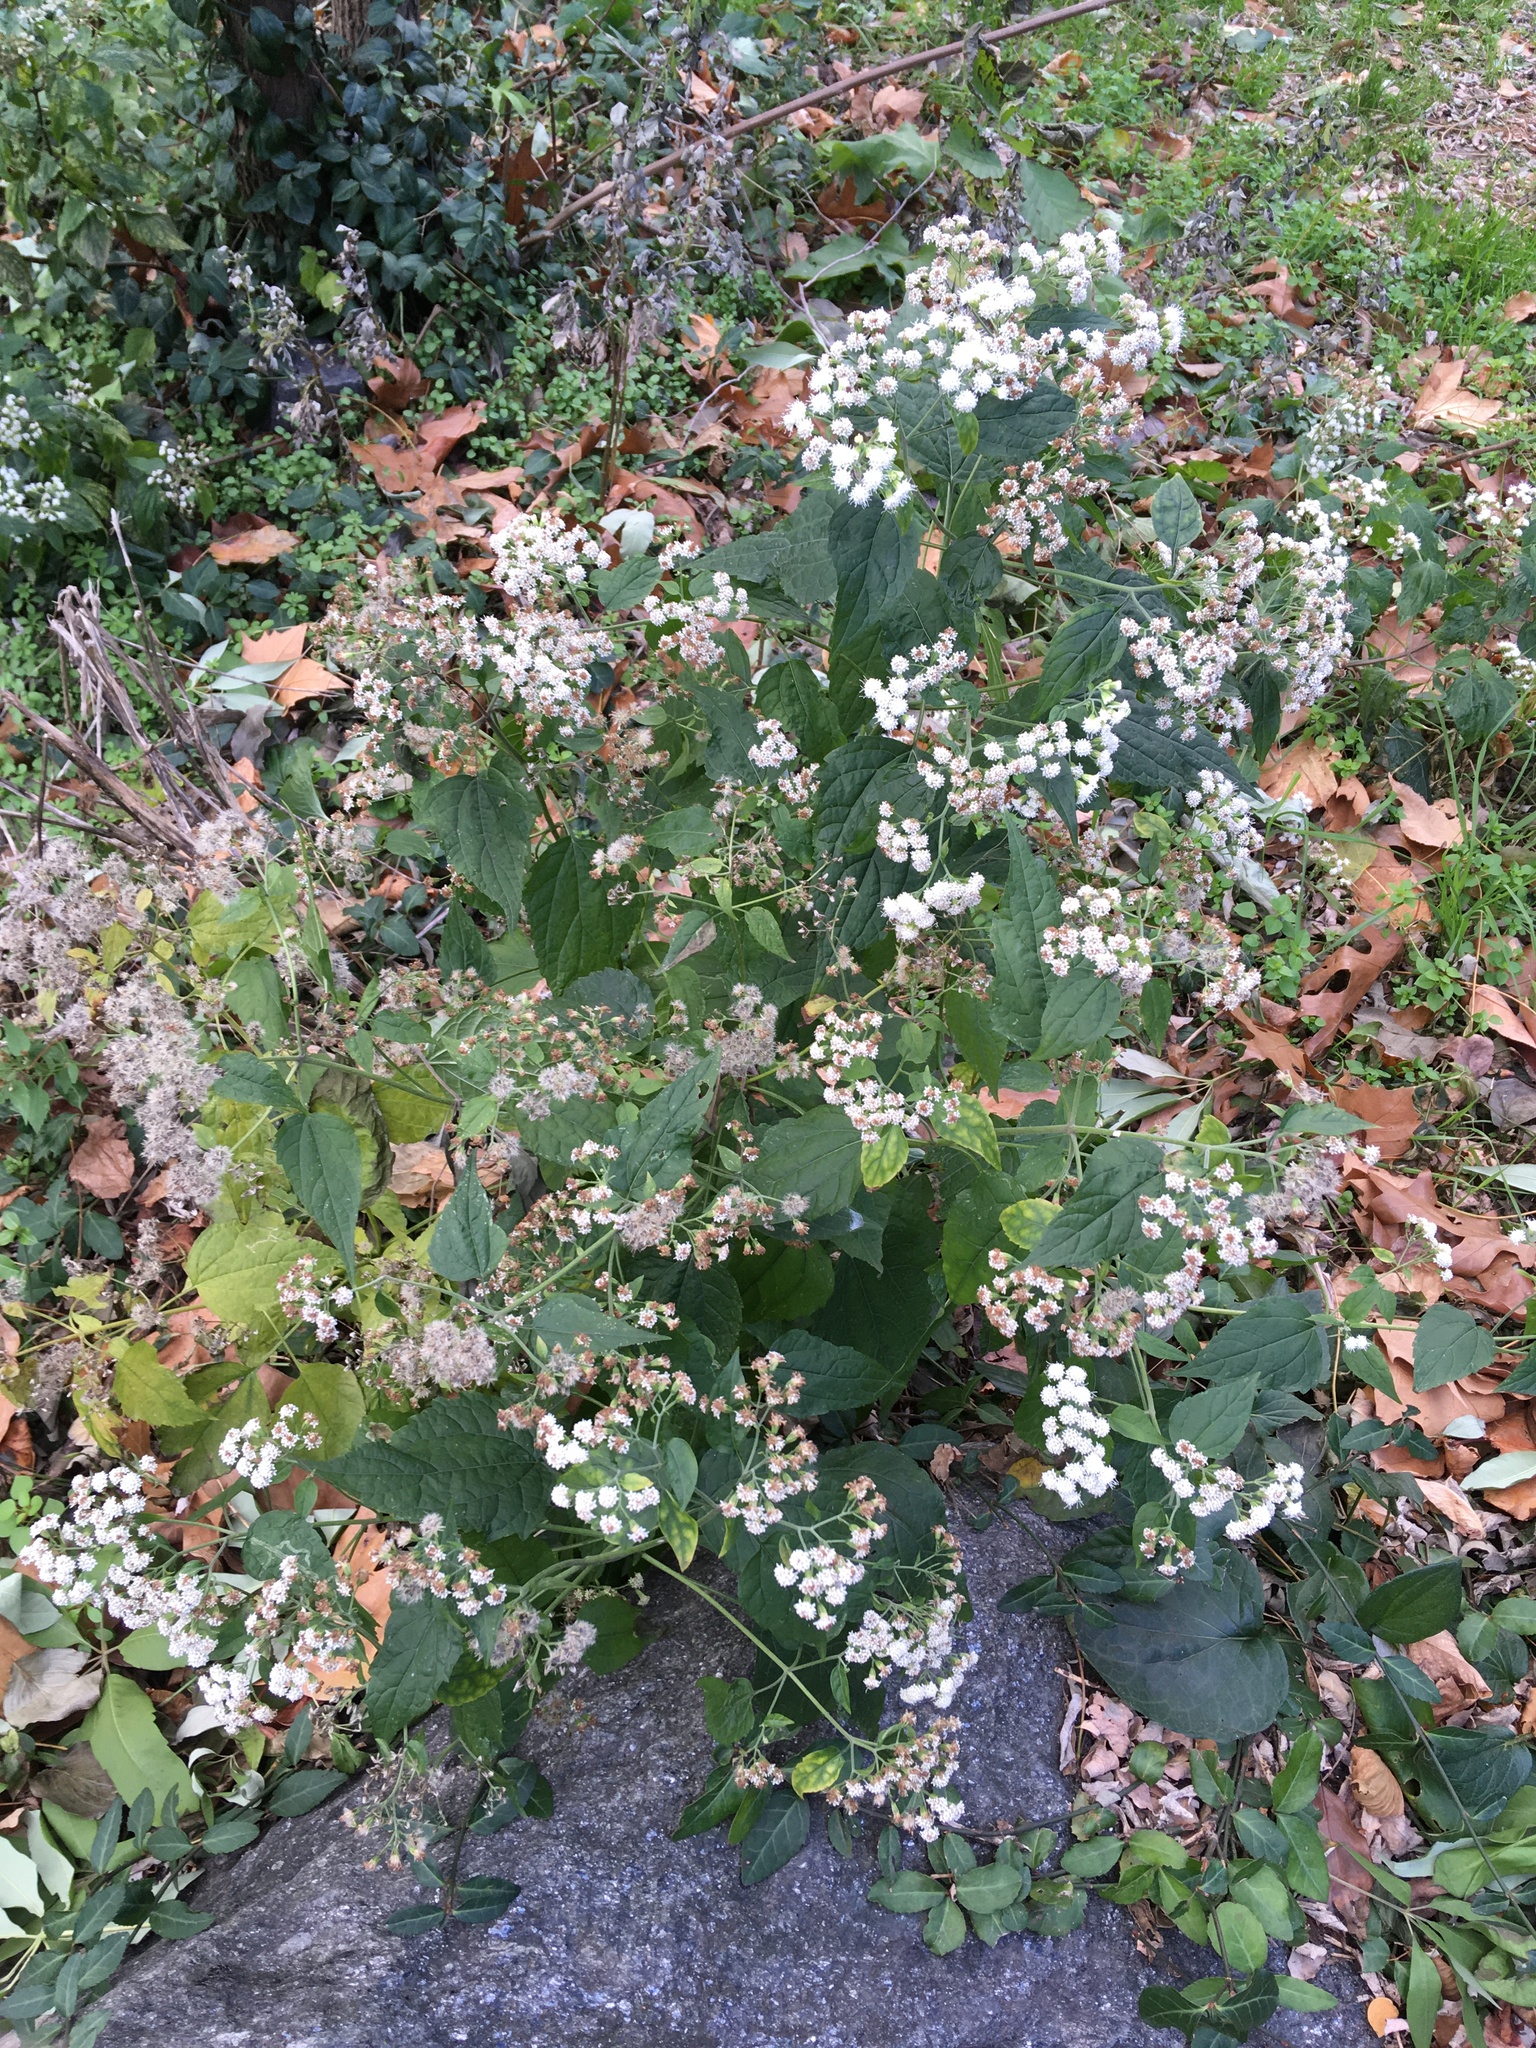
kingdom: Plantae
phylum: Tracheophyta
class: Magnoliopsida
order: Asterales
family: Asteraceae
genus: Ageratina
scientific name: Ageratina altissima
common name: White snakeroot
